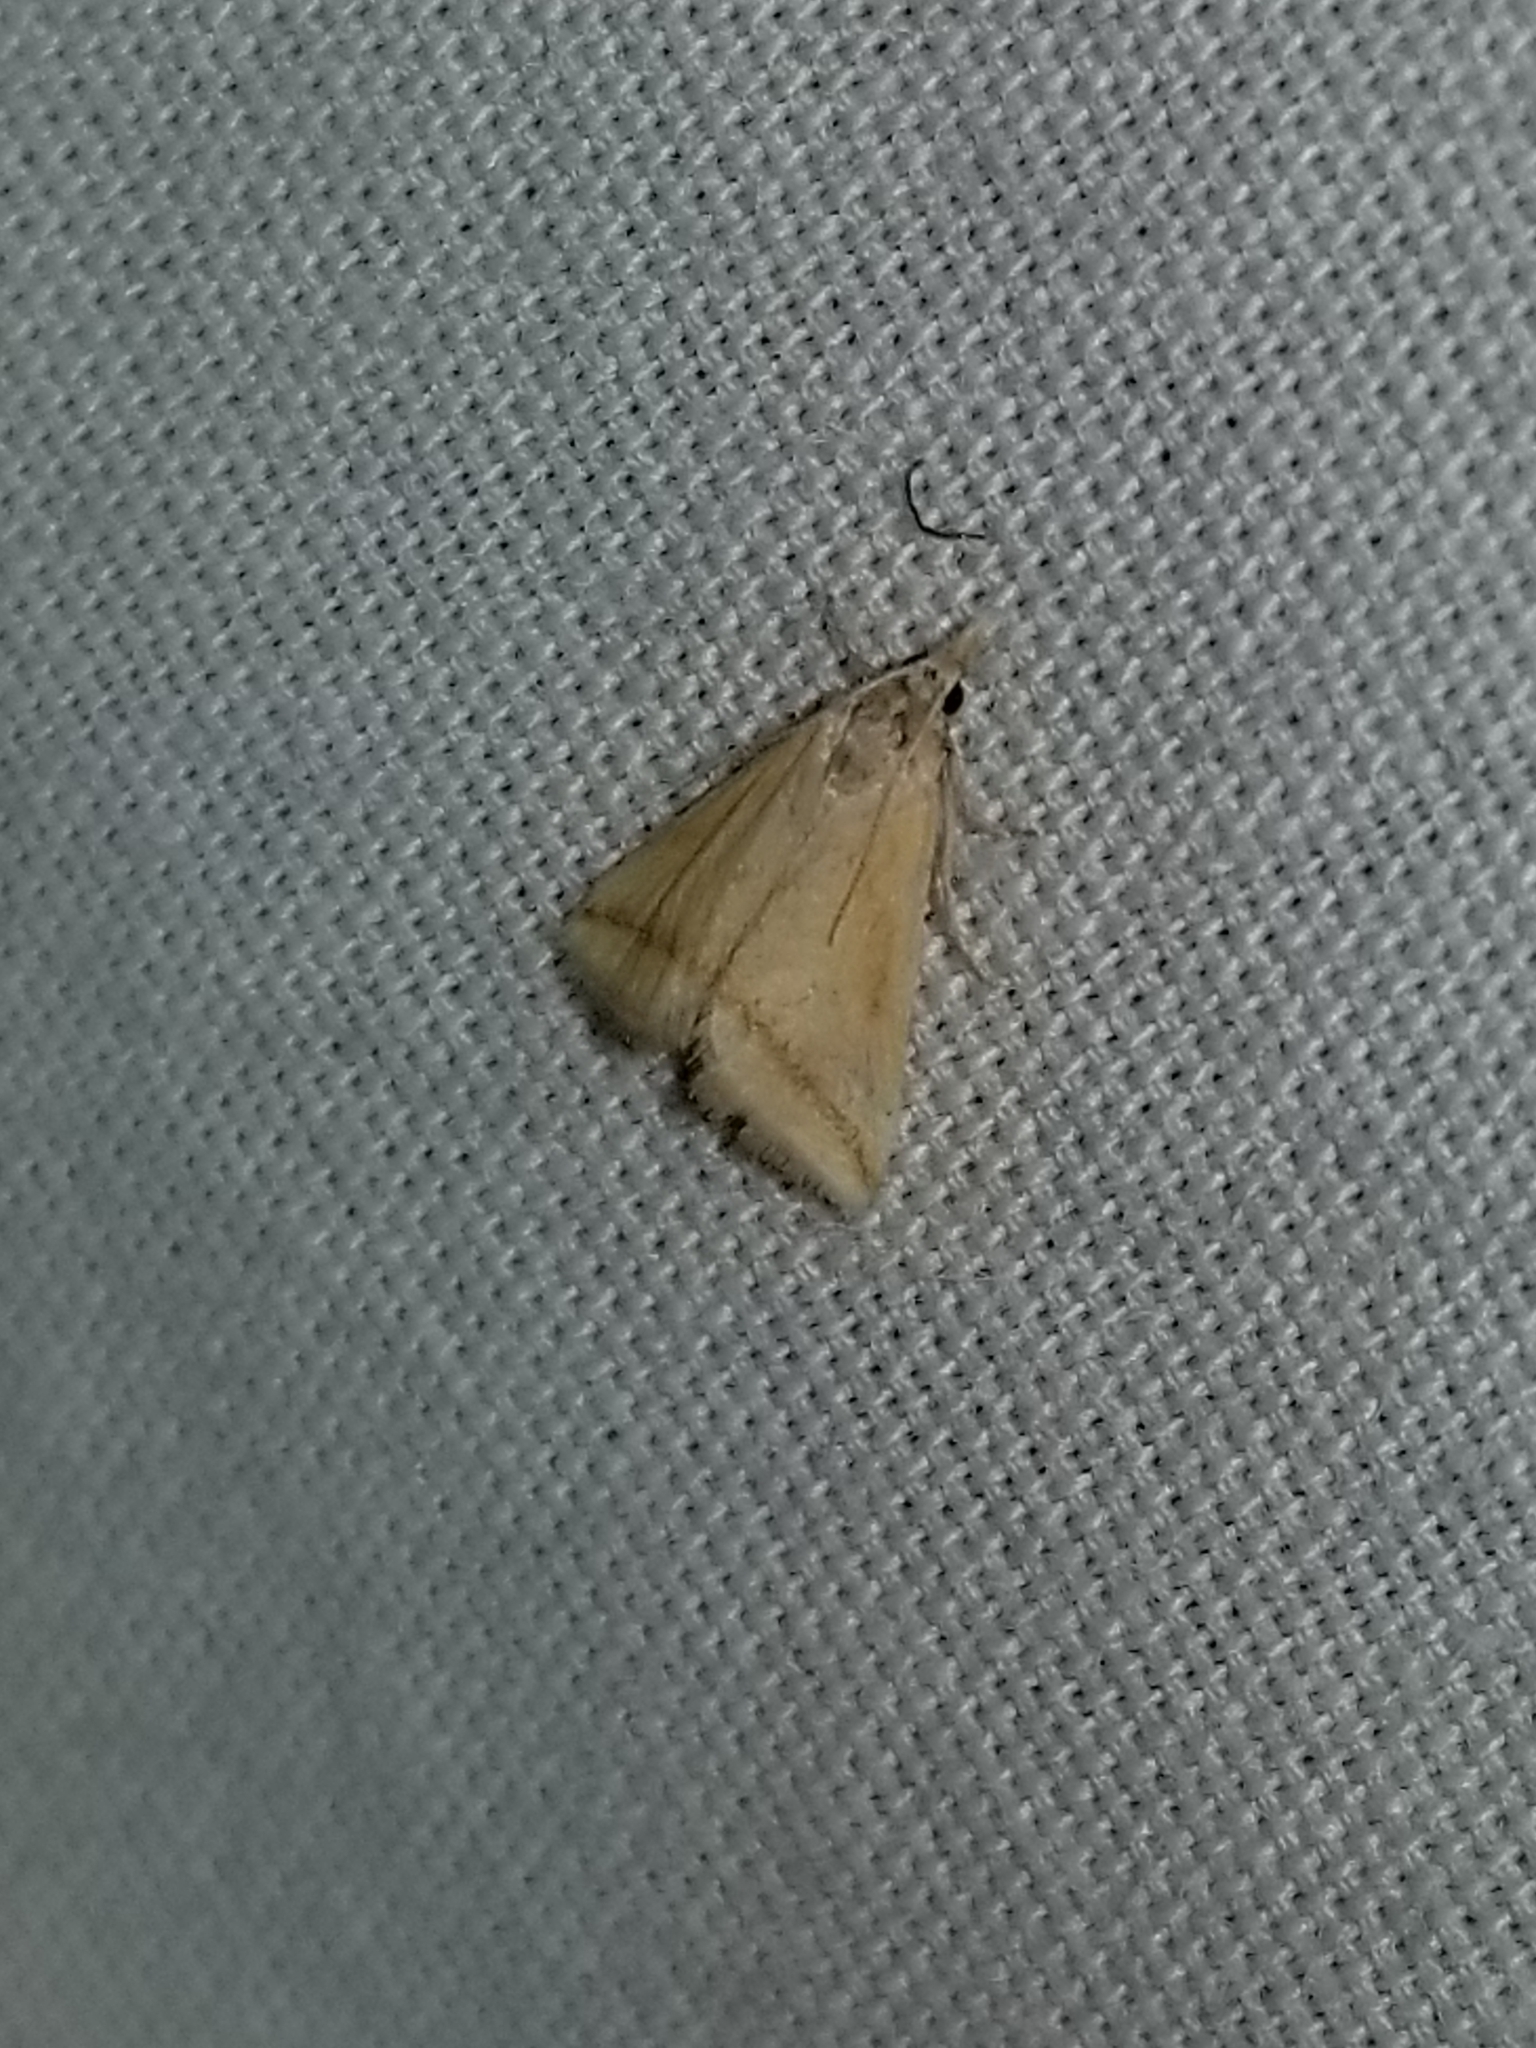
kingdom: Animalia
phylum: Arthropoda
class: Insecta
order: Lepidoptera
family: Crambidae
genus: Microtheoris
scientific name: Microtheoris vibicalis
